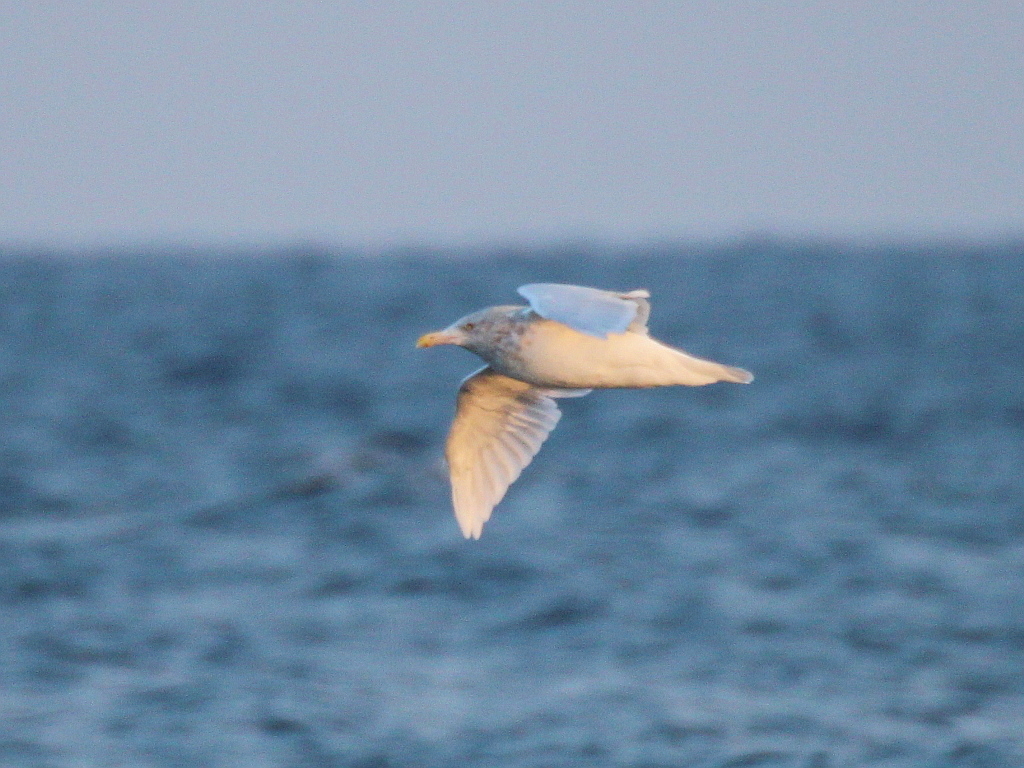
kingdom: Animalia
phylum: Chordata
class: Aves
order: Charadriiformes
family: Laridae
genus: Larus
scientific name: Larus hyperboreus
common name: Glaucous gull
